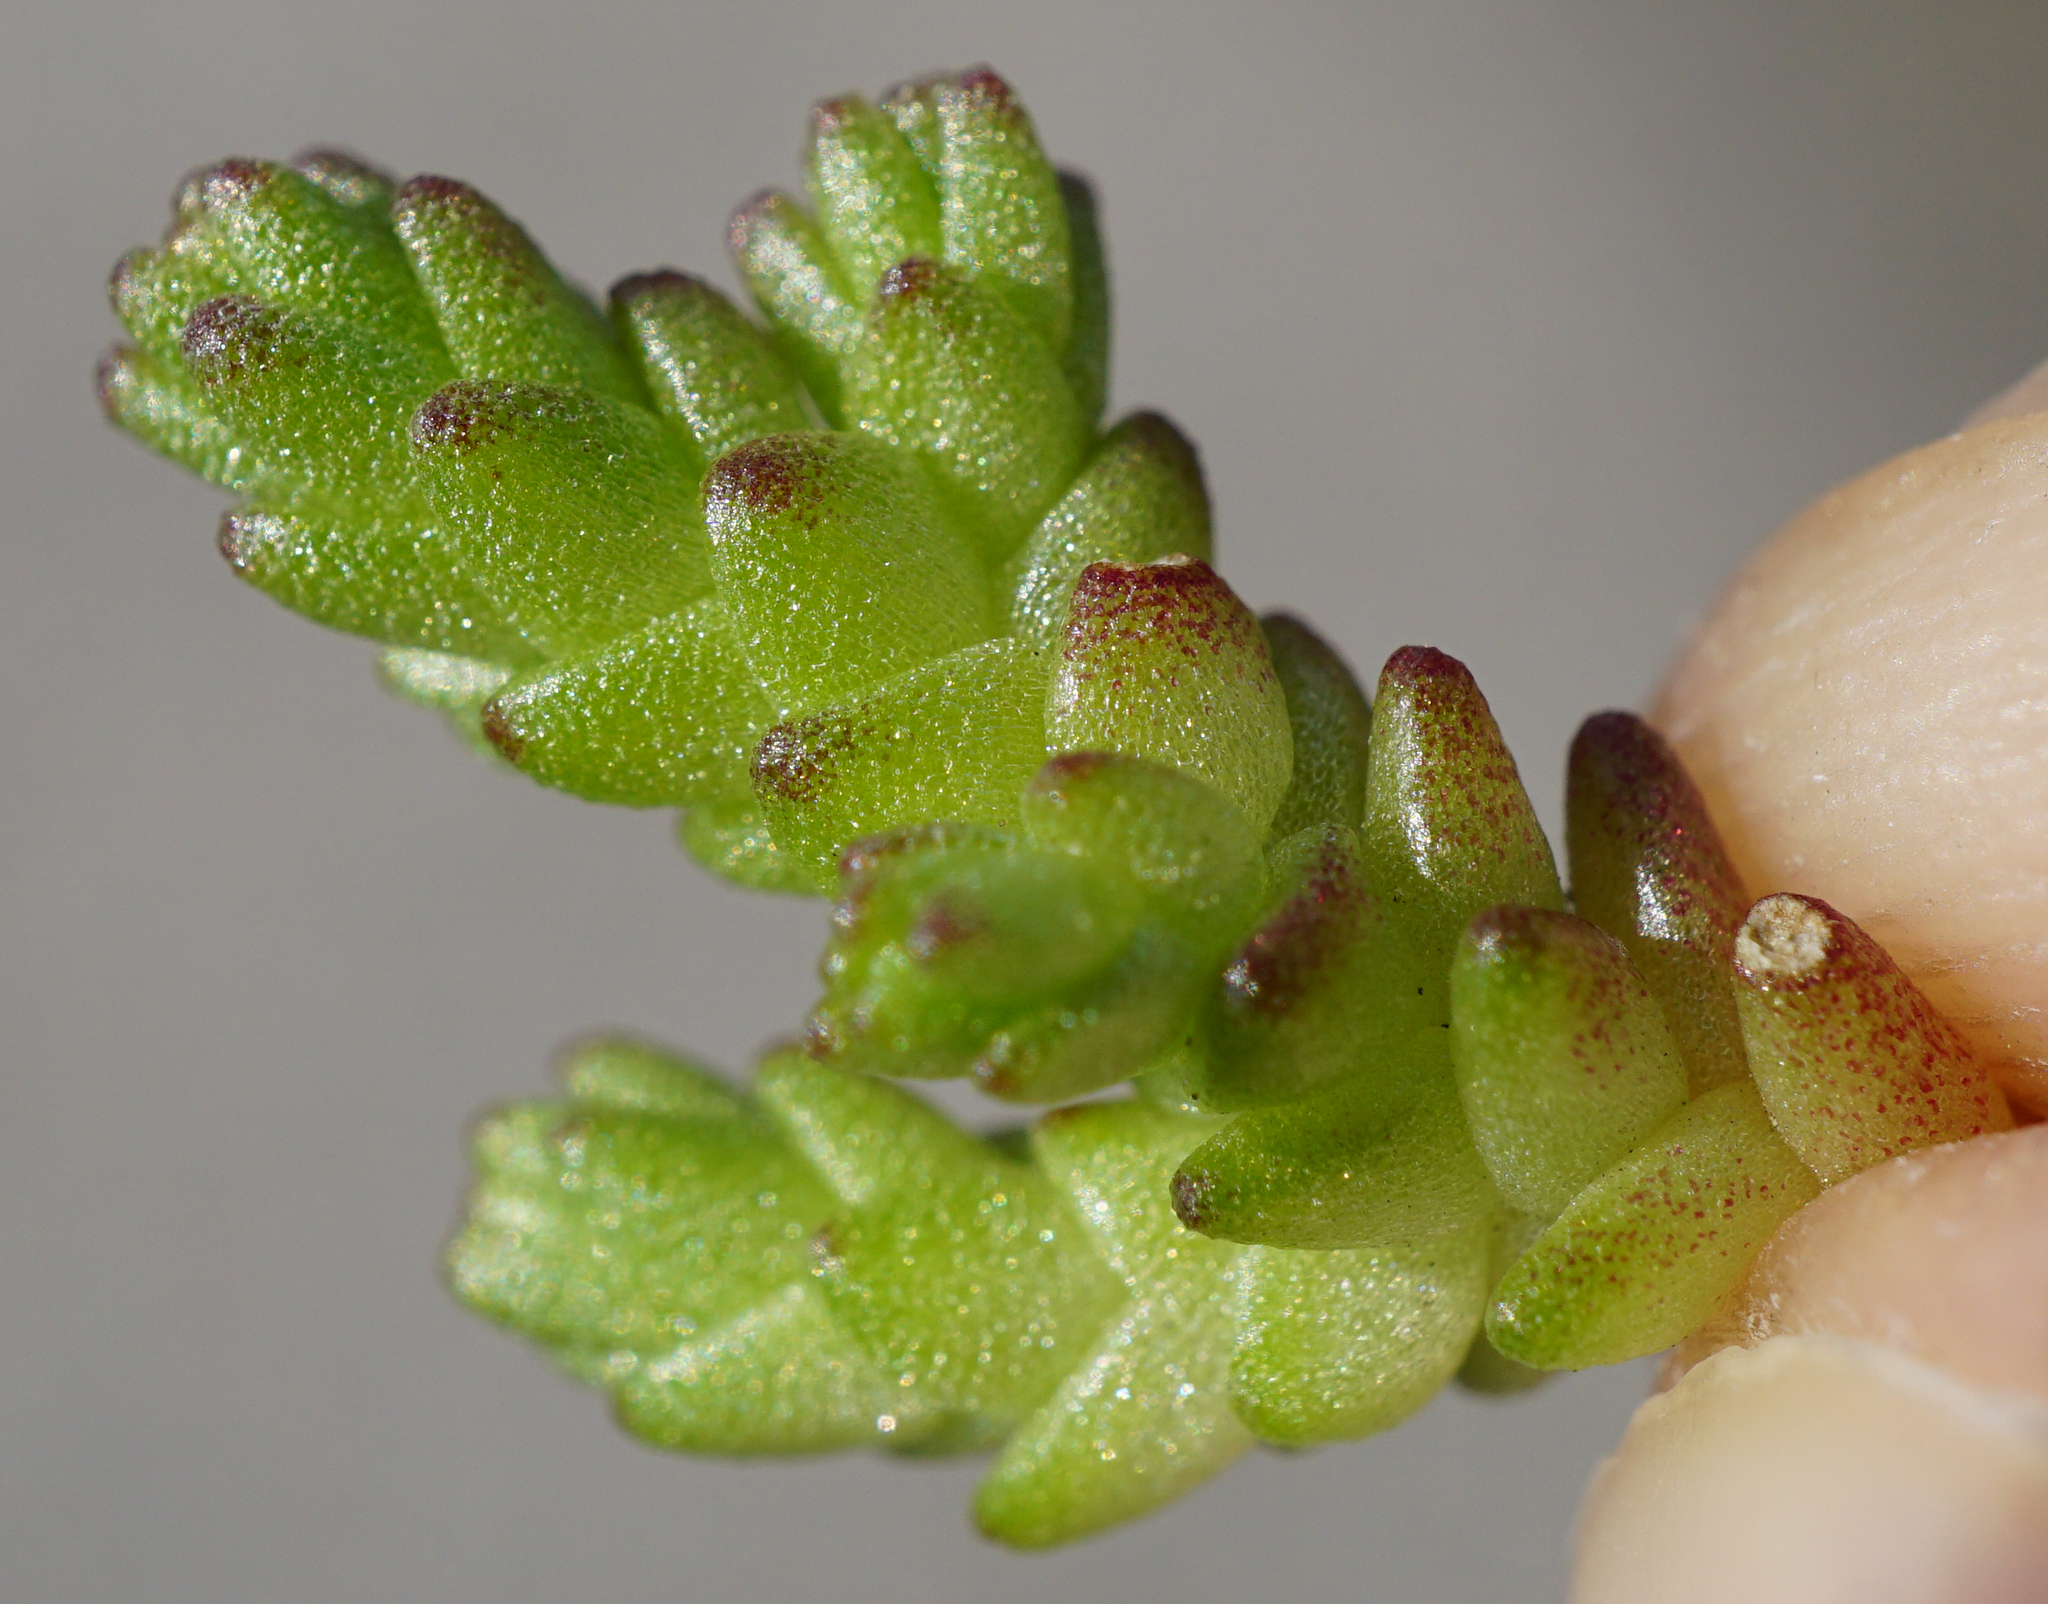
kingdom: Plantae
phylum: Tracheophyta
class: Magnoliopsida
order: Saxifragales
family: Crassulaceae
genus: Sedum
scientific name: Sedum acre
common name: Biting stonecrop
